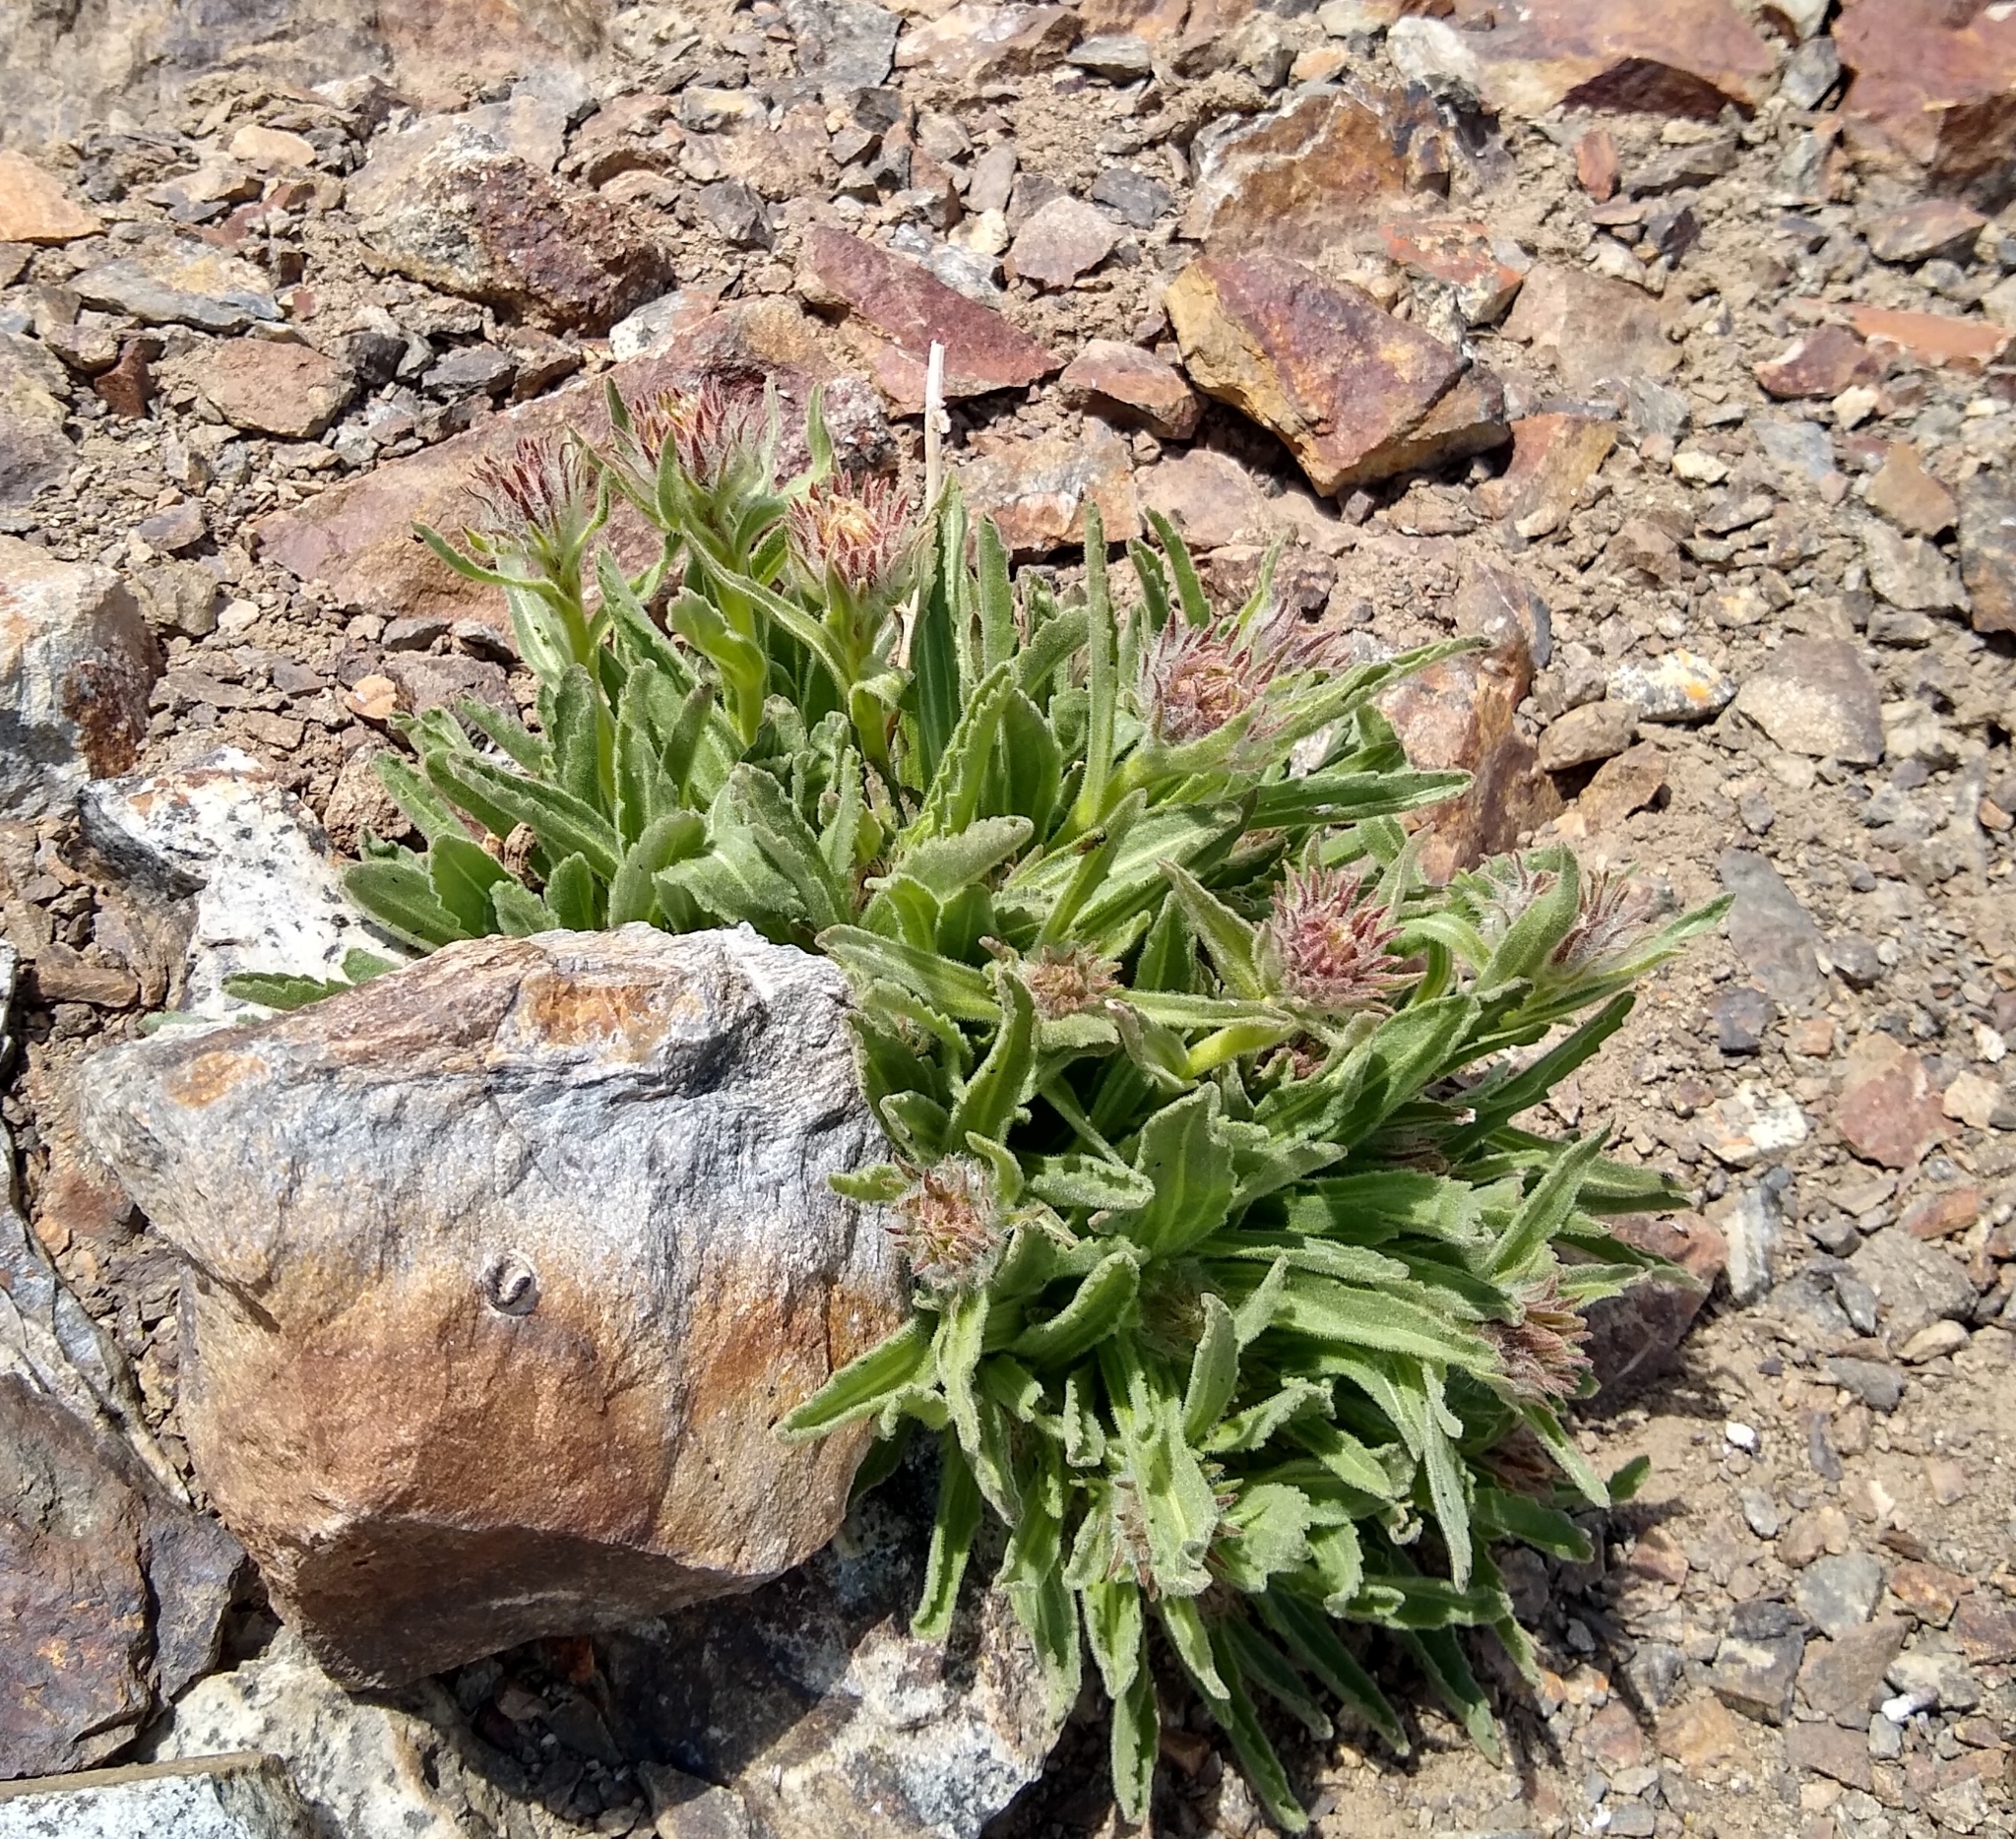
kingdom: Plantae
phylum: Tracheophyta
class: Magnoliopsida
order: Asterales
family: Asteraceae
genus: Hulsea
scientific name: Hulsea algida
